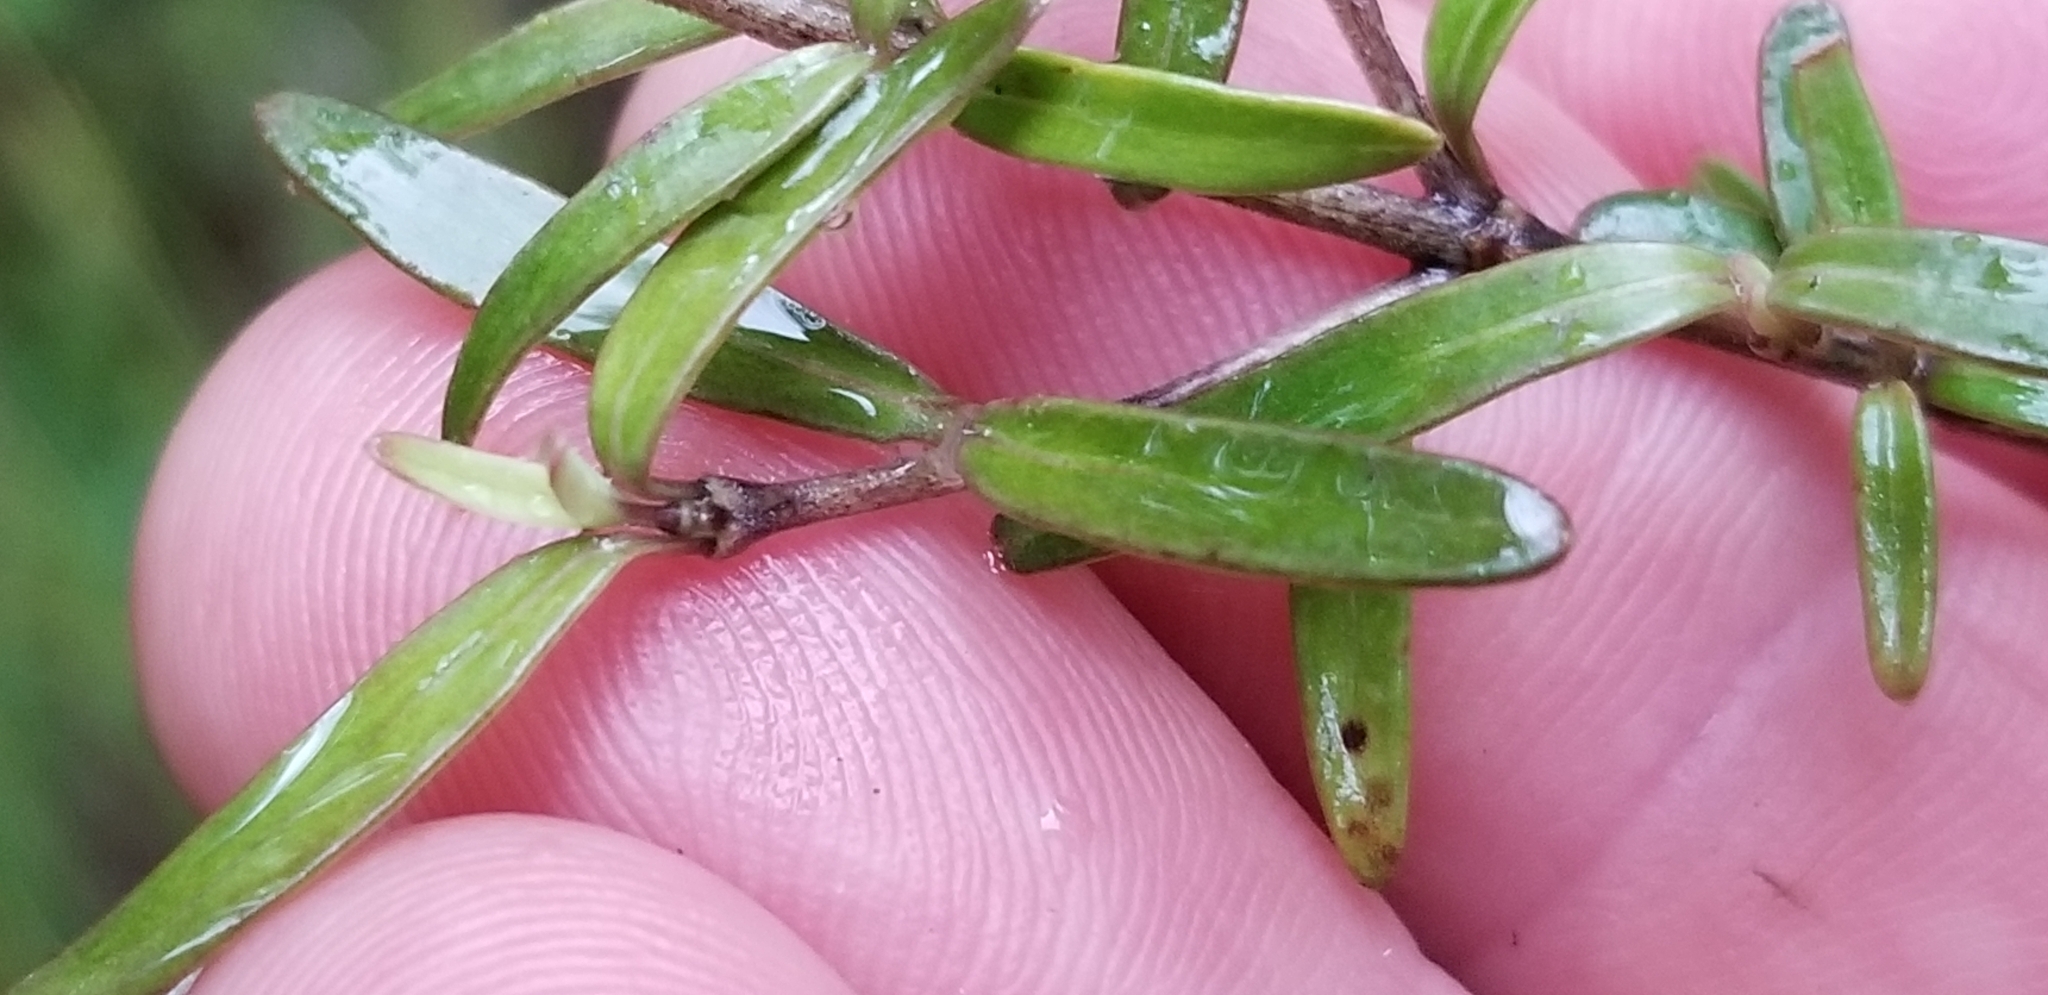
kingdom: Plantae
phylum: Tracheophyta
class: Magnoliopsida
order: Gentianales
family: Rubiaceae
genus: Coprosma
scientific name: Coprosma colensoi
